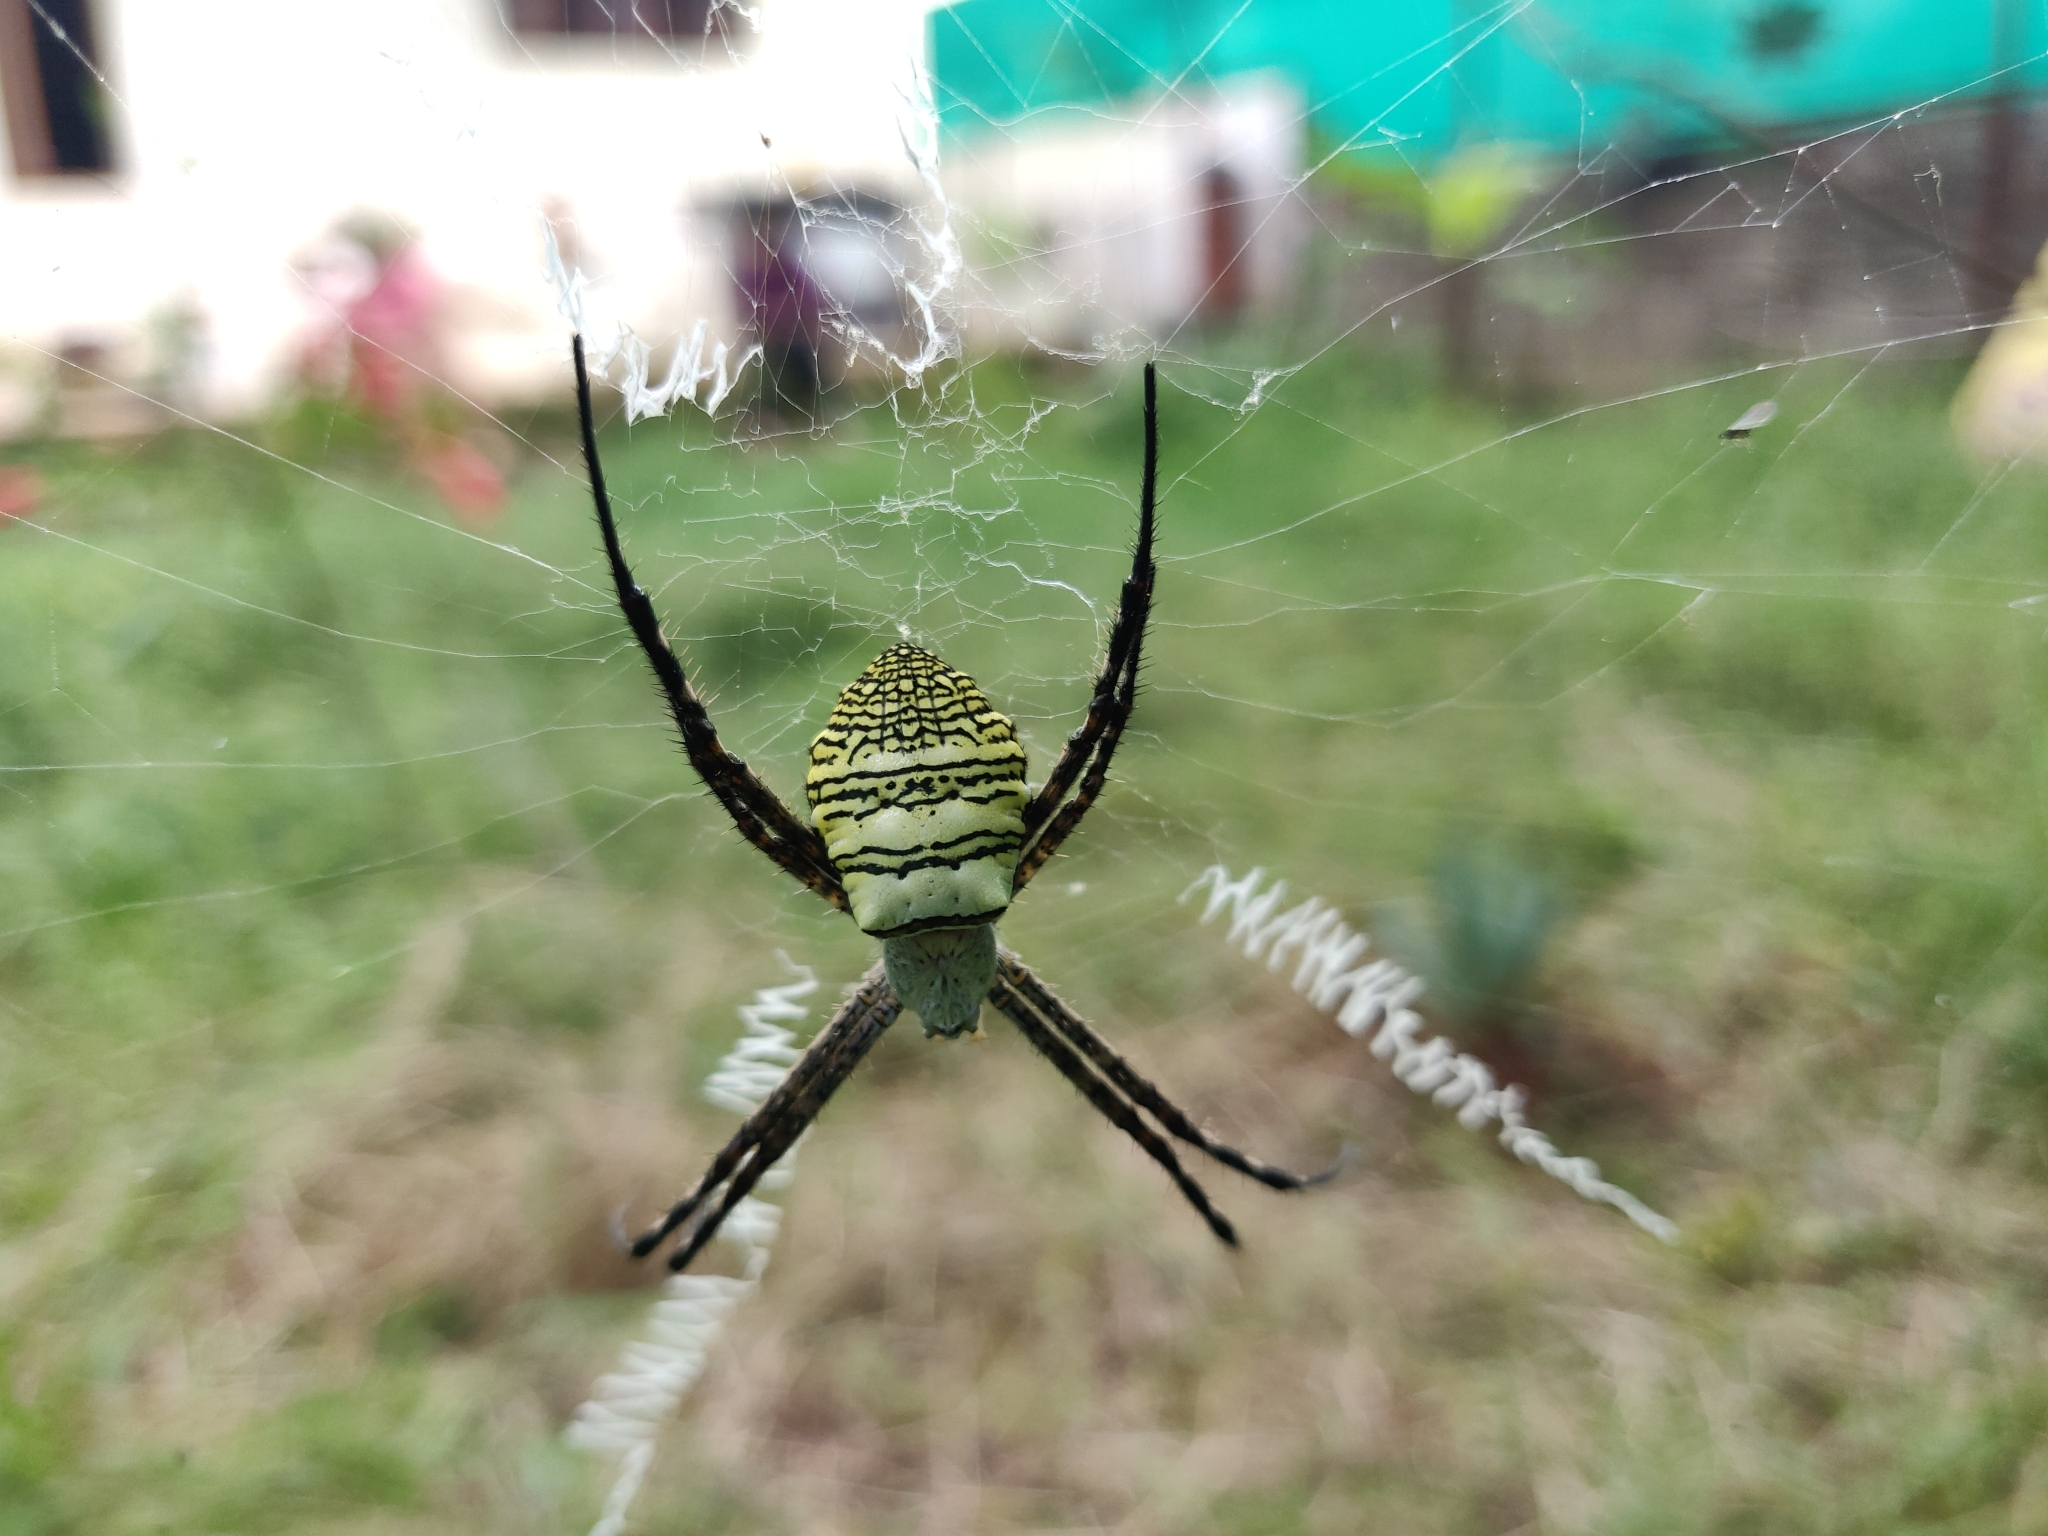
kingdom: Animalia
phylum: Arthropoda
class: Arachnida
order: Araneae
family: Araneidae
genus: Argiope
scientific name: Argiope aemula
